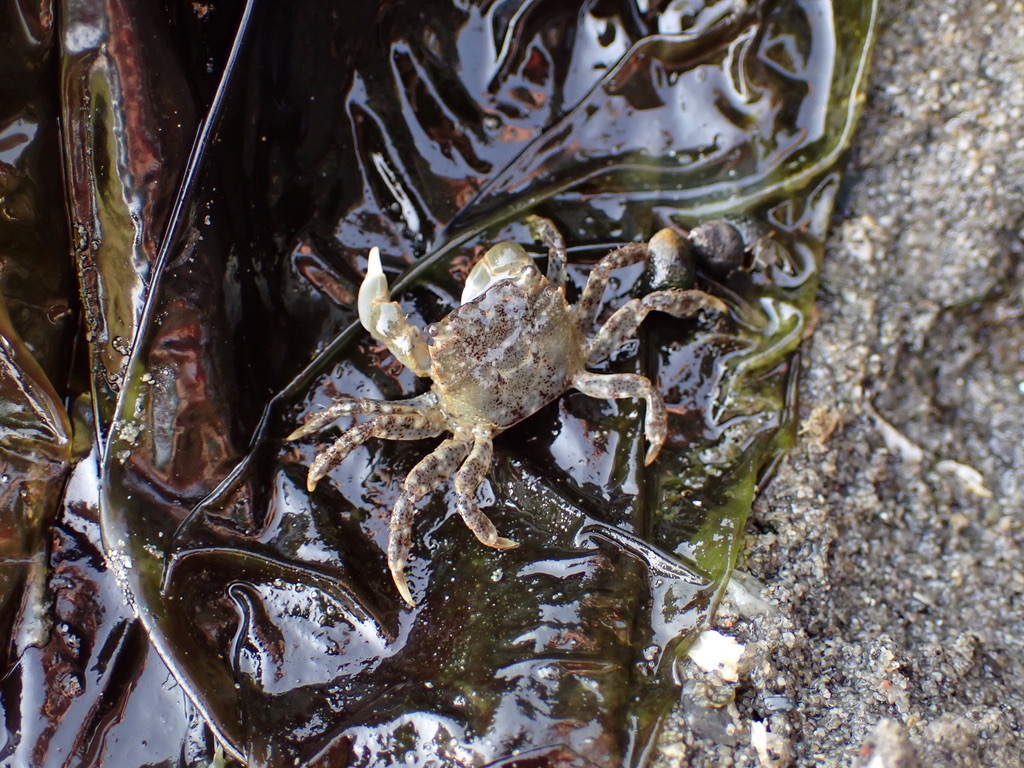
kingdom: Animalia
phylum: Arthropoda
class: Malacostraca
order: Decapoda
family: Varunidae
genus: Hemigrapsus
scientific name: Hemigrapsus oregonensis
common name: Yellow shore crab
